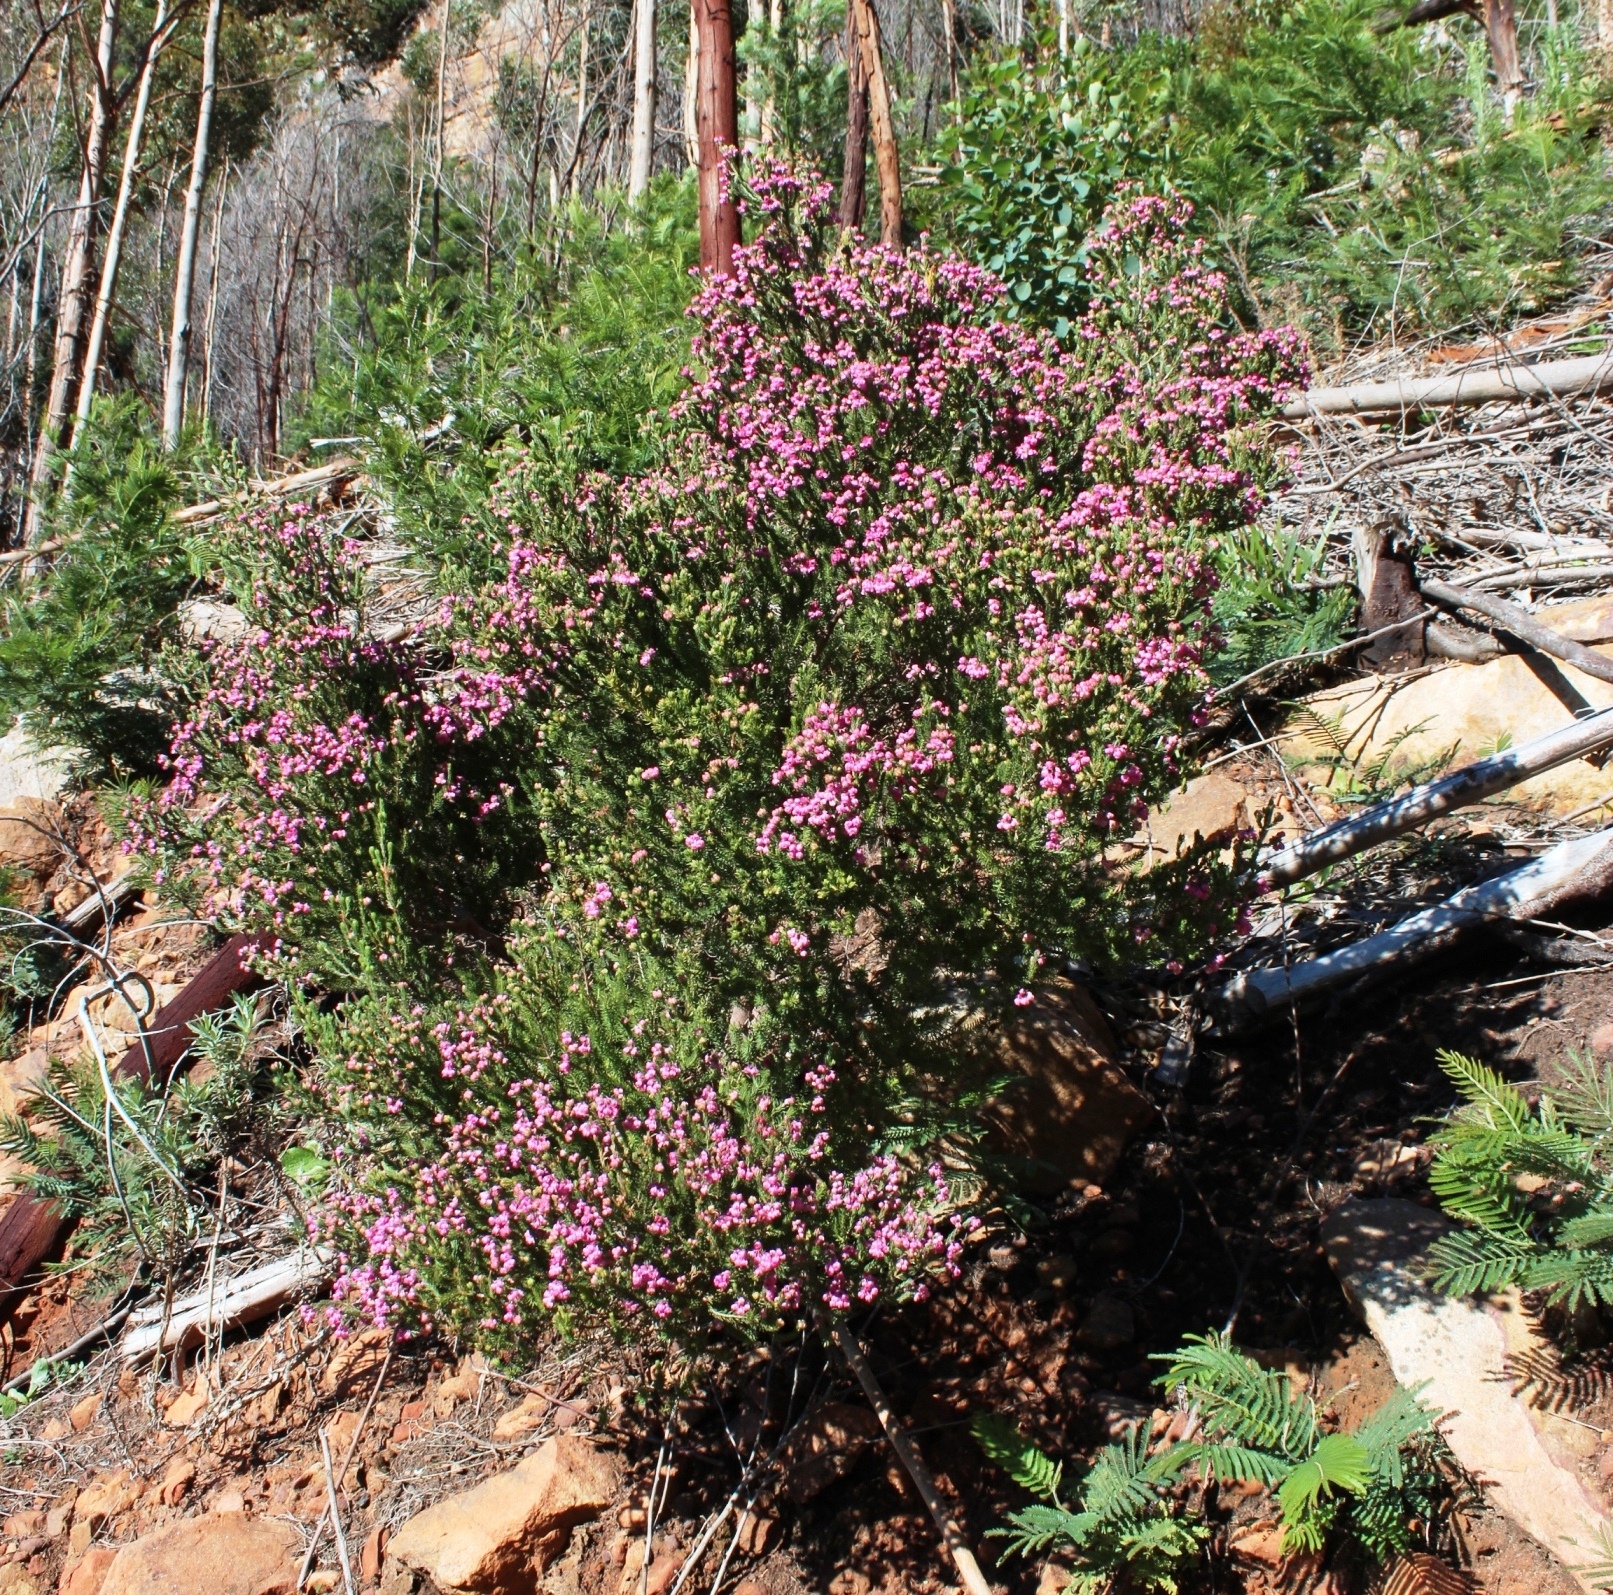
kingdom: Plantae
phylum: Tracheophyta
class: Magnoliopsida
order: Ericales
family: Ericaceae
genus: Erica
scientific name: Erica baccans
